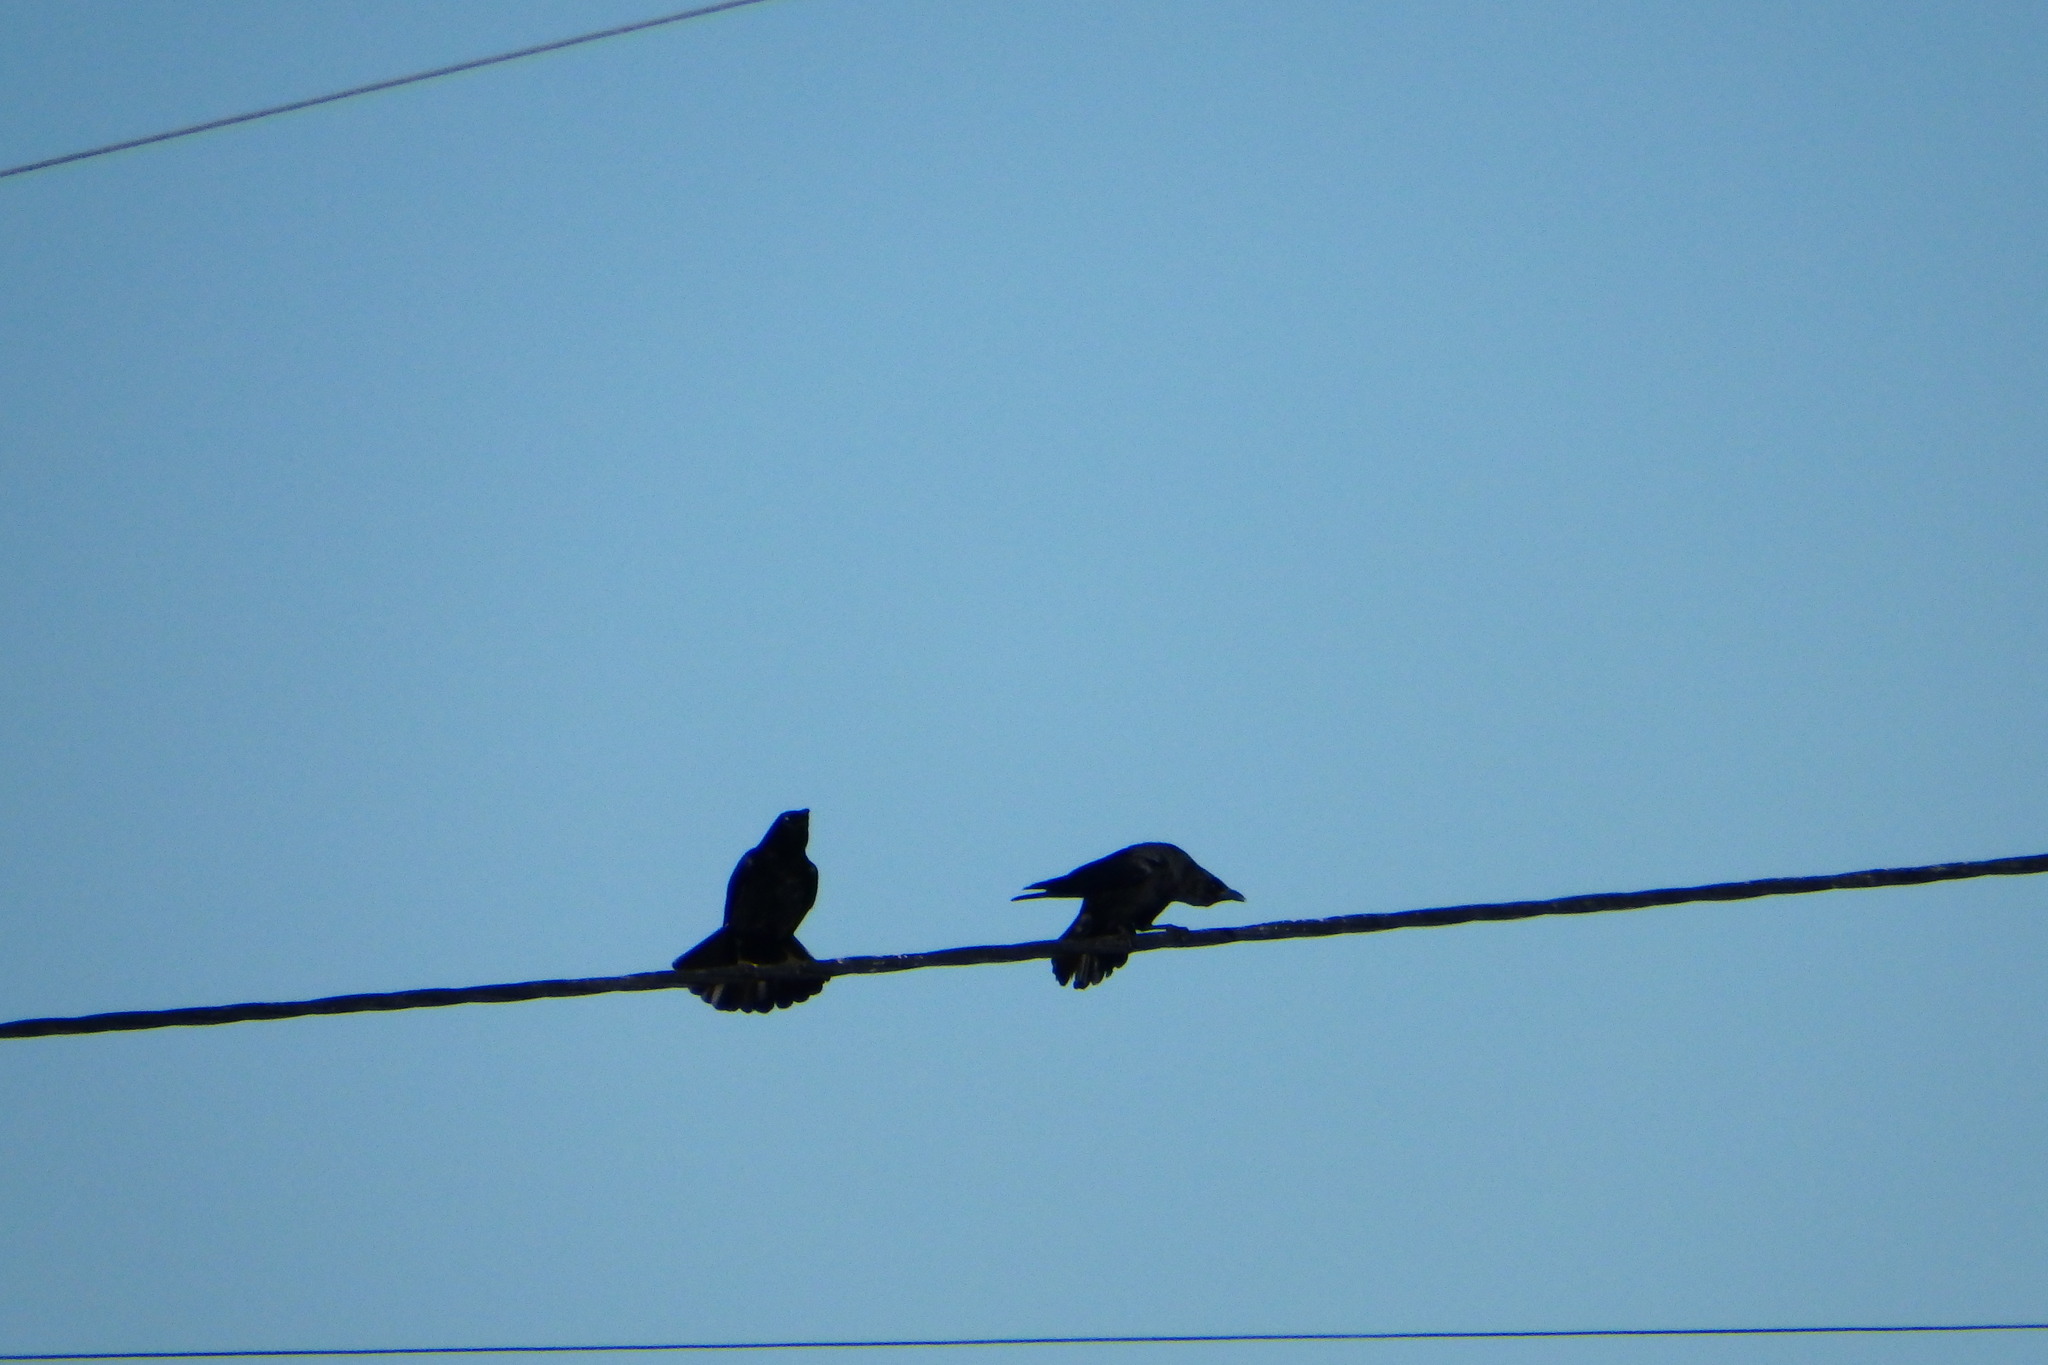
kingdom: Animalia
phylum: Chordata
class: Aves
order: Passeriformes
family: Corvidae
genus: Corvus
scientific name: Corvus corone
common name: Carrion crow
